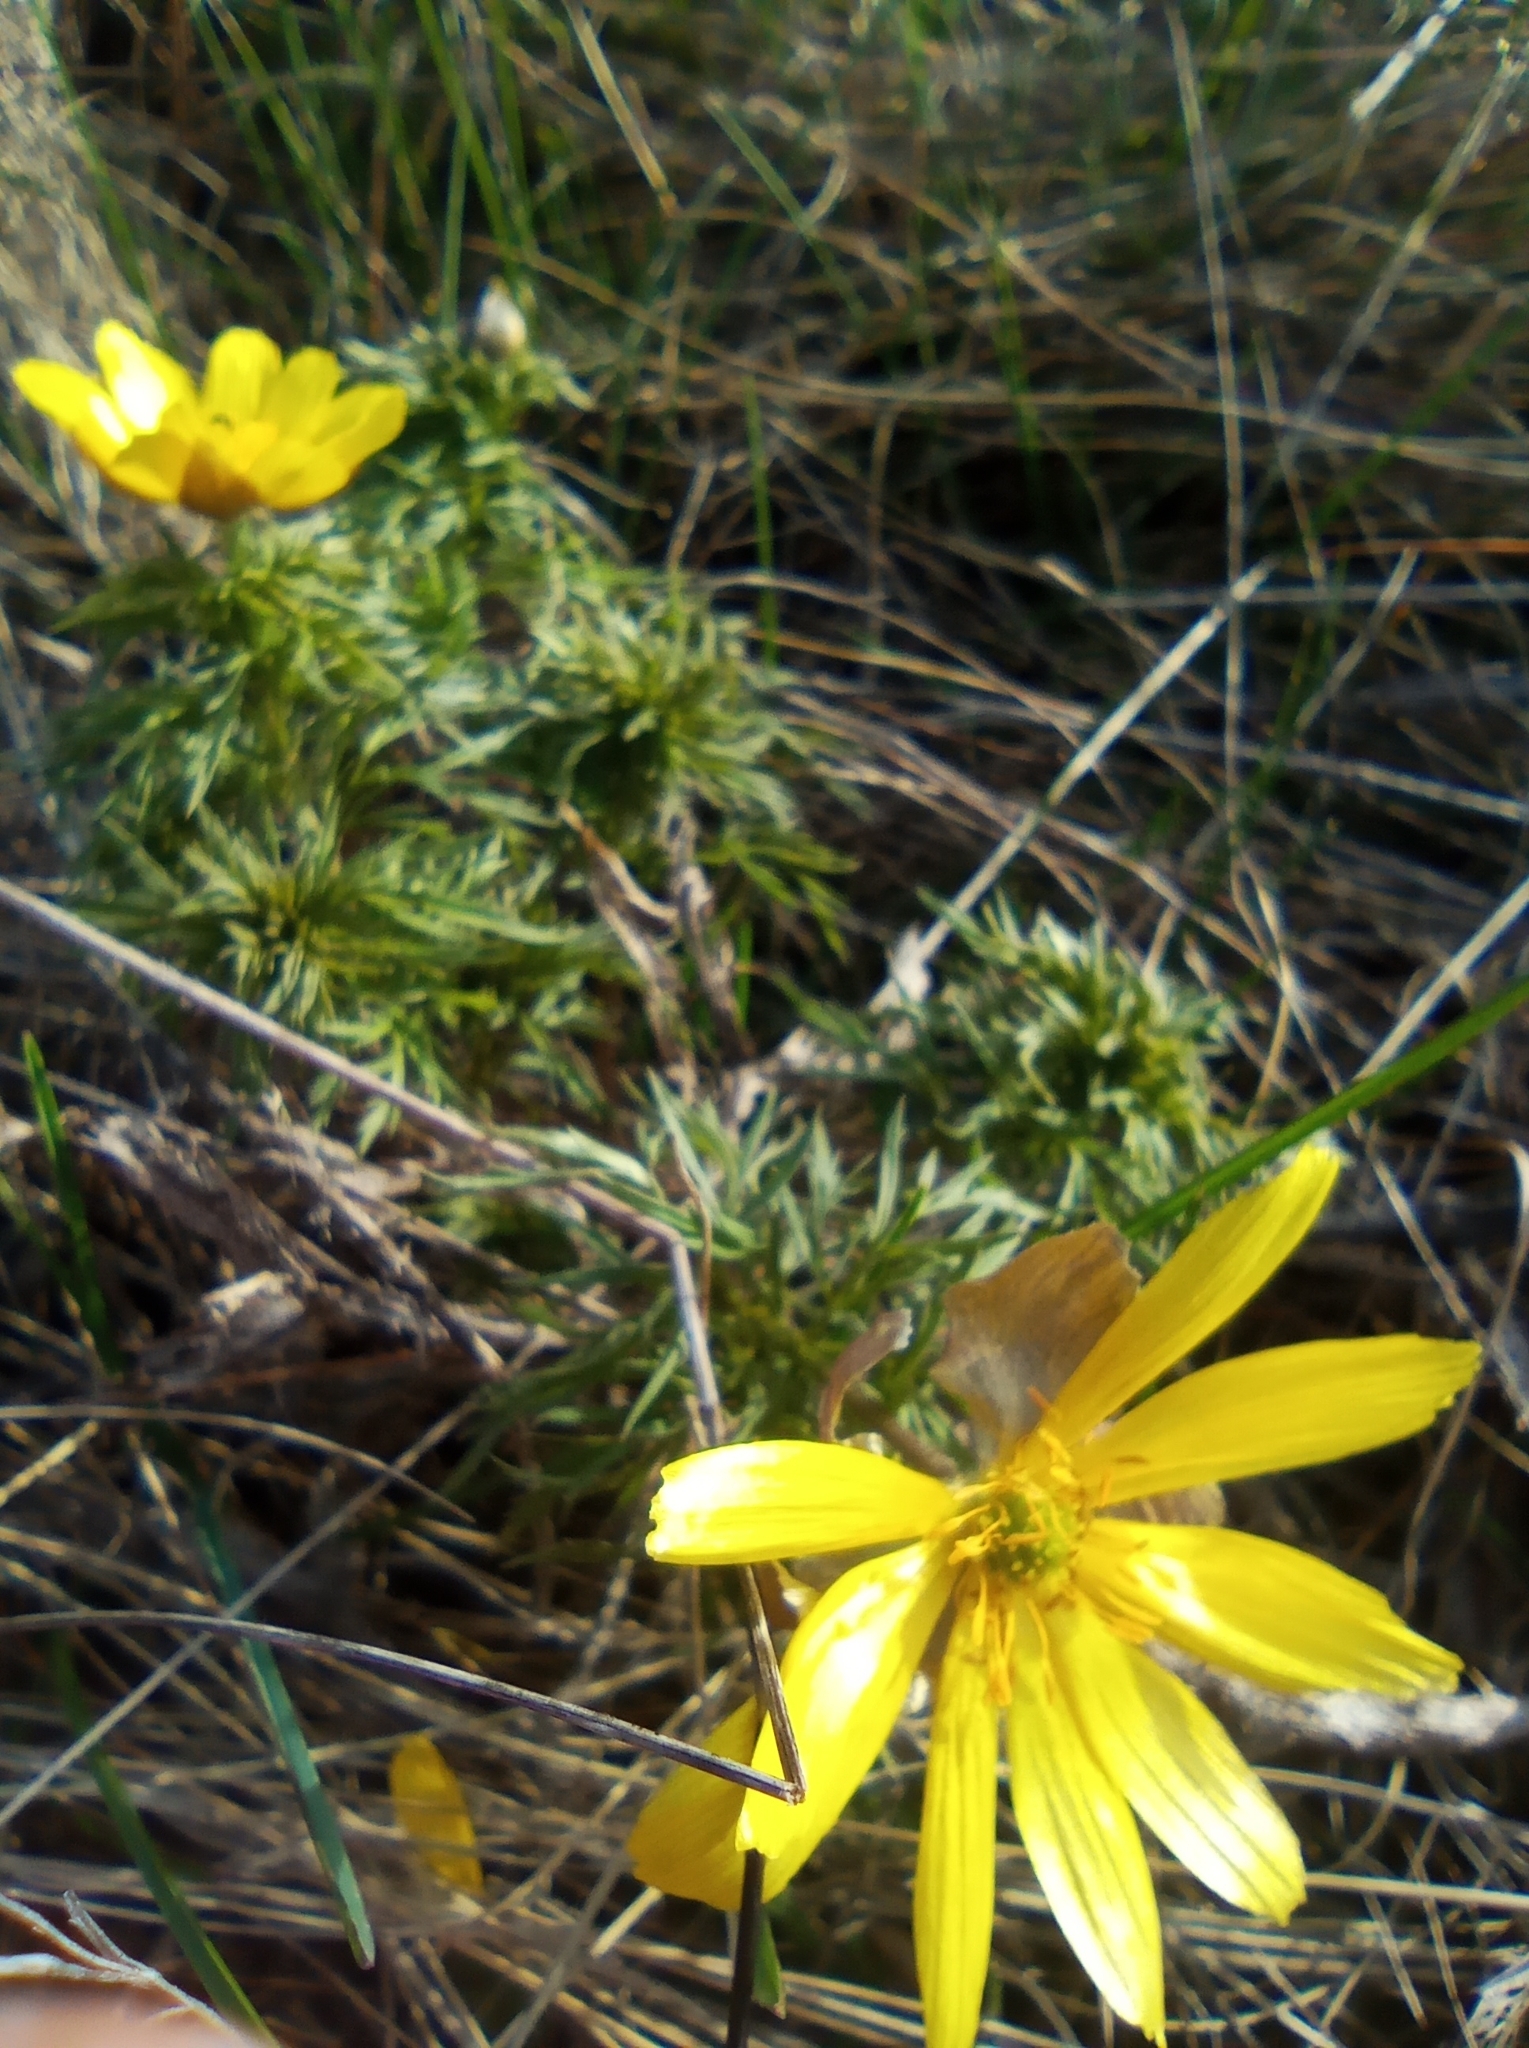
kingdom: Plantae
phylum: Tracheophyta
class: Magnoliopsida
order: Ranunculales
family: Ranunculaceae
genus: Adonis
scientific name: Adonis volgensis
